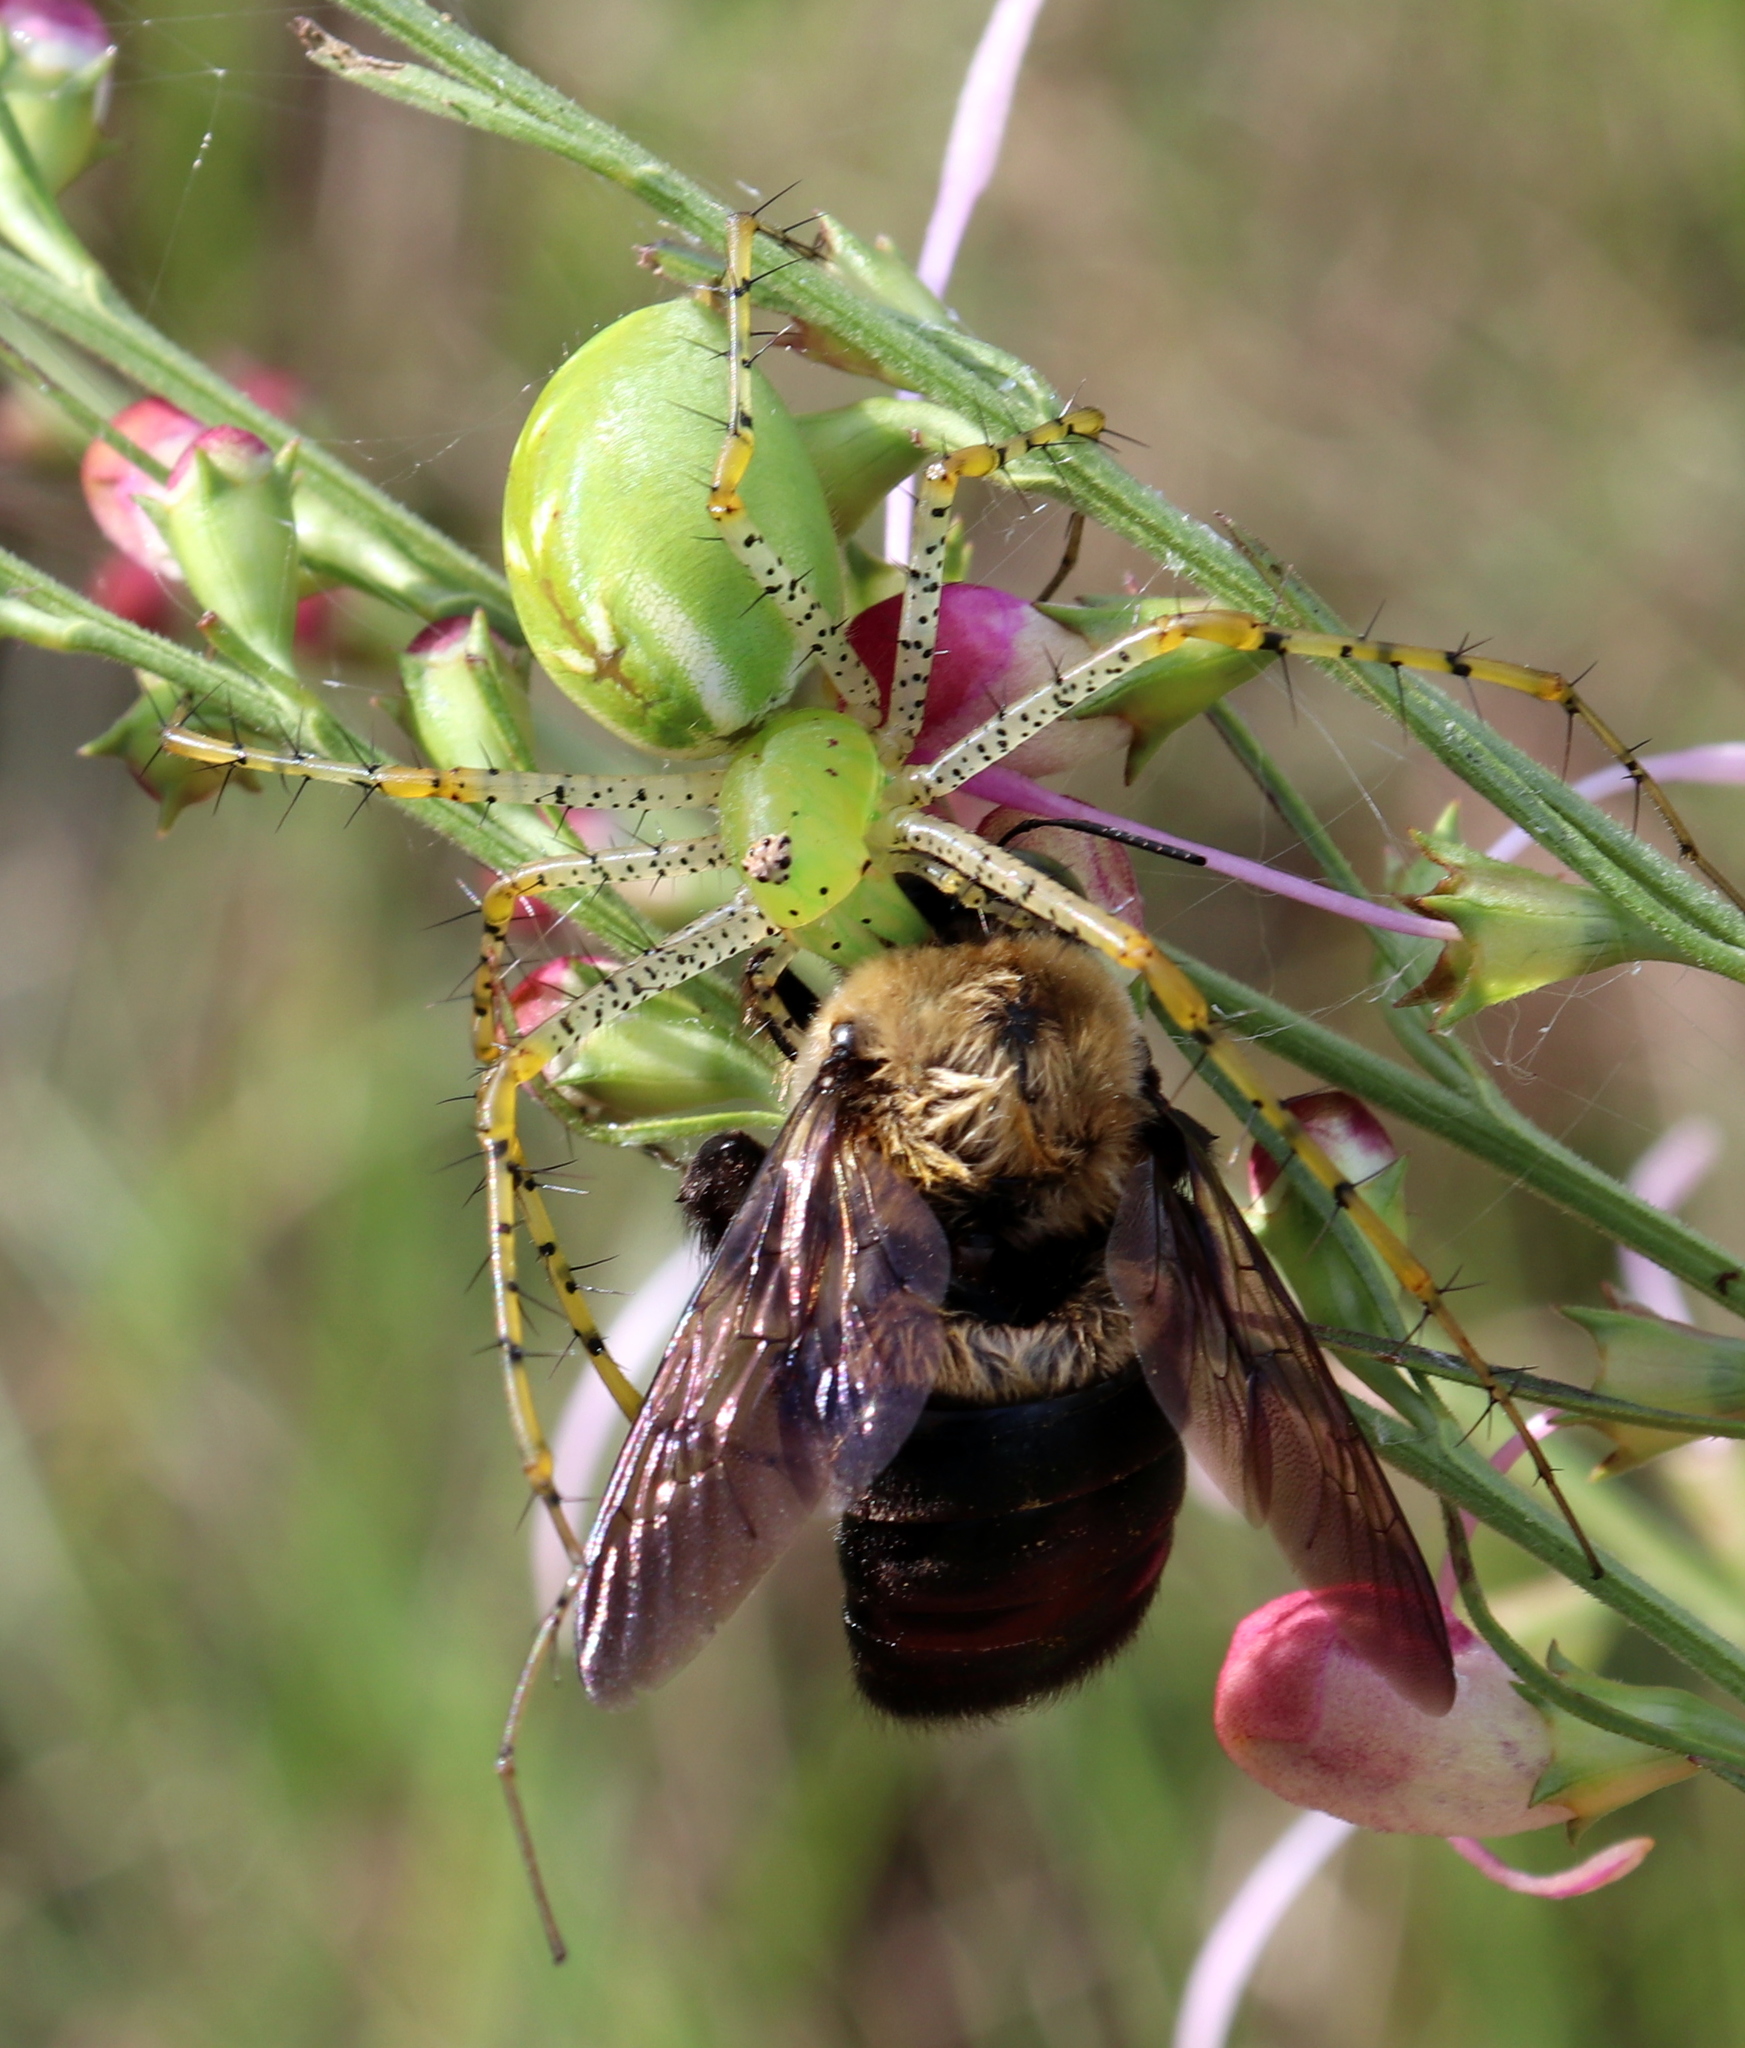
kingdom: Animalia
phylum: Arthropoda
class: Arachnida
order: Araneae
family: Oxyopidae
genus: Peucetia
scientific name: Peucetia viridans
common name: Lynx spiders
